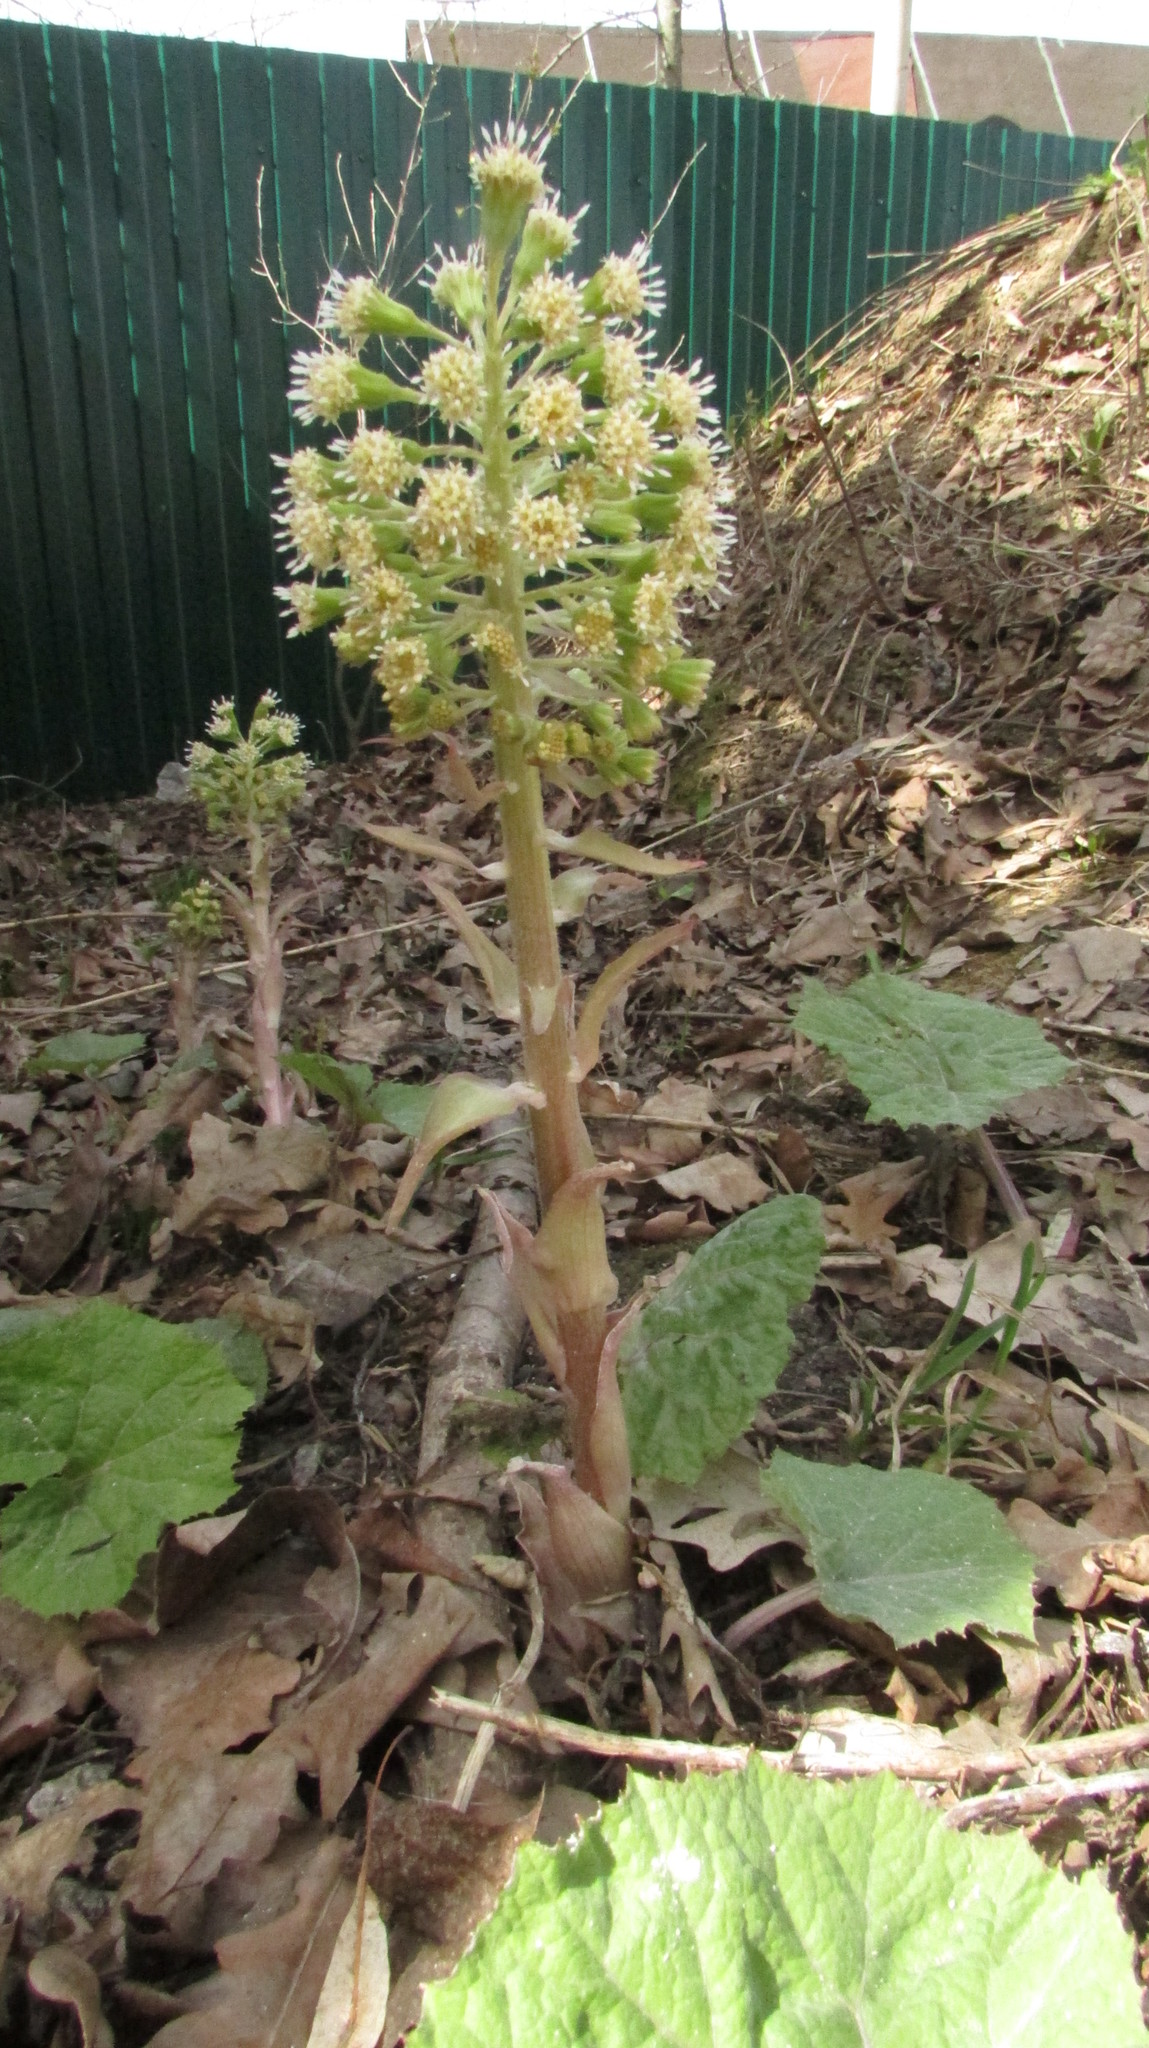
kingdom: Plantae
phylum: Tracheophyta
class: Magnoliopsida
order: Asterales
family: Asteraceae
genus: Petasites
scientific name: Petasites spurius
